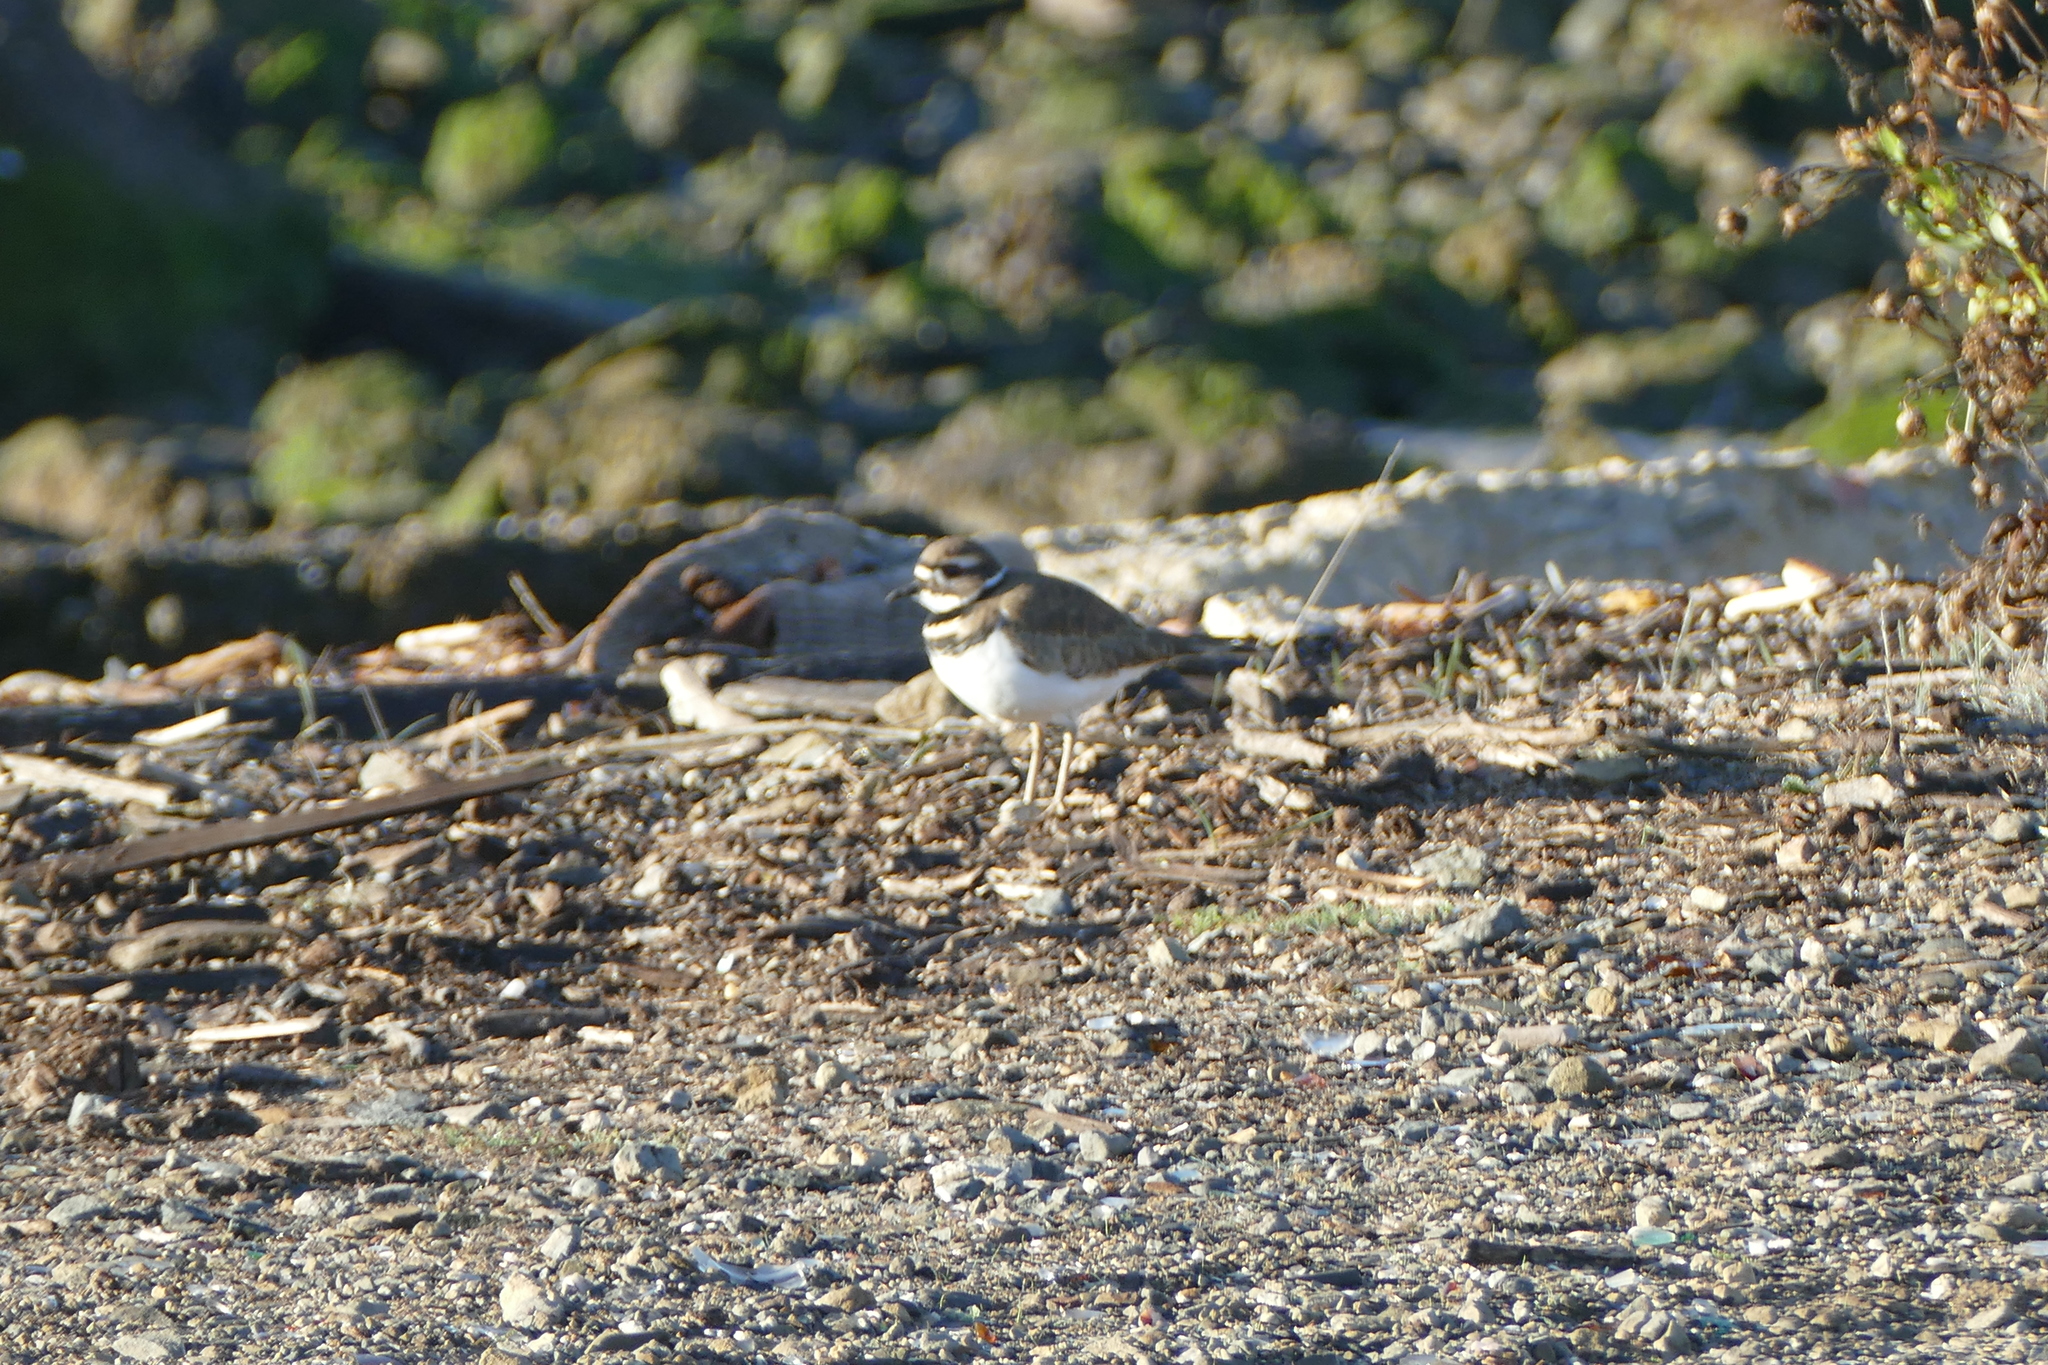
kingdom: Animalia
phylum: Chordata
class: Aves
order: Charadriiformes
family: Charadriidae
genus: Charadrius
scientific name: Charadrius vociferus
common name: Killdeer
